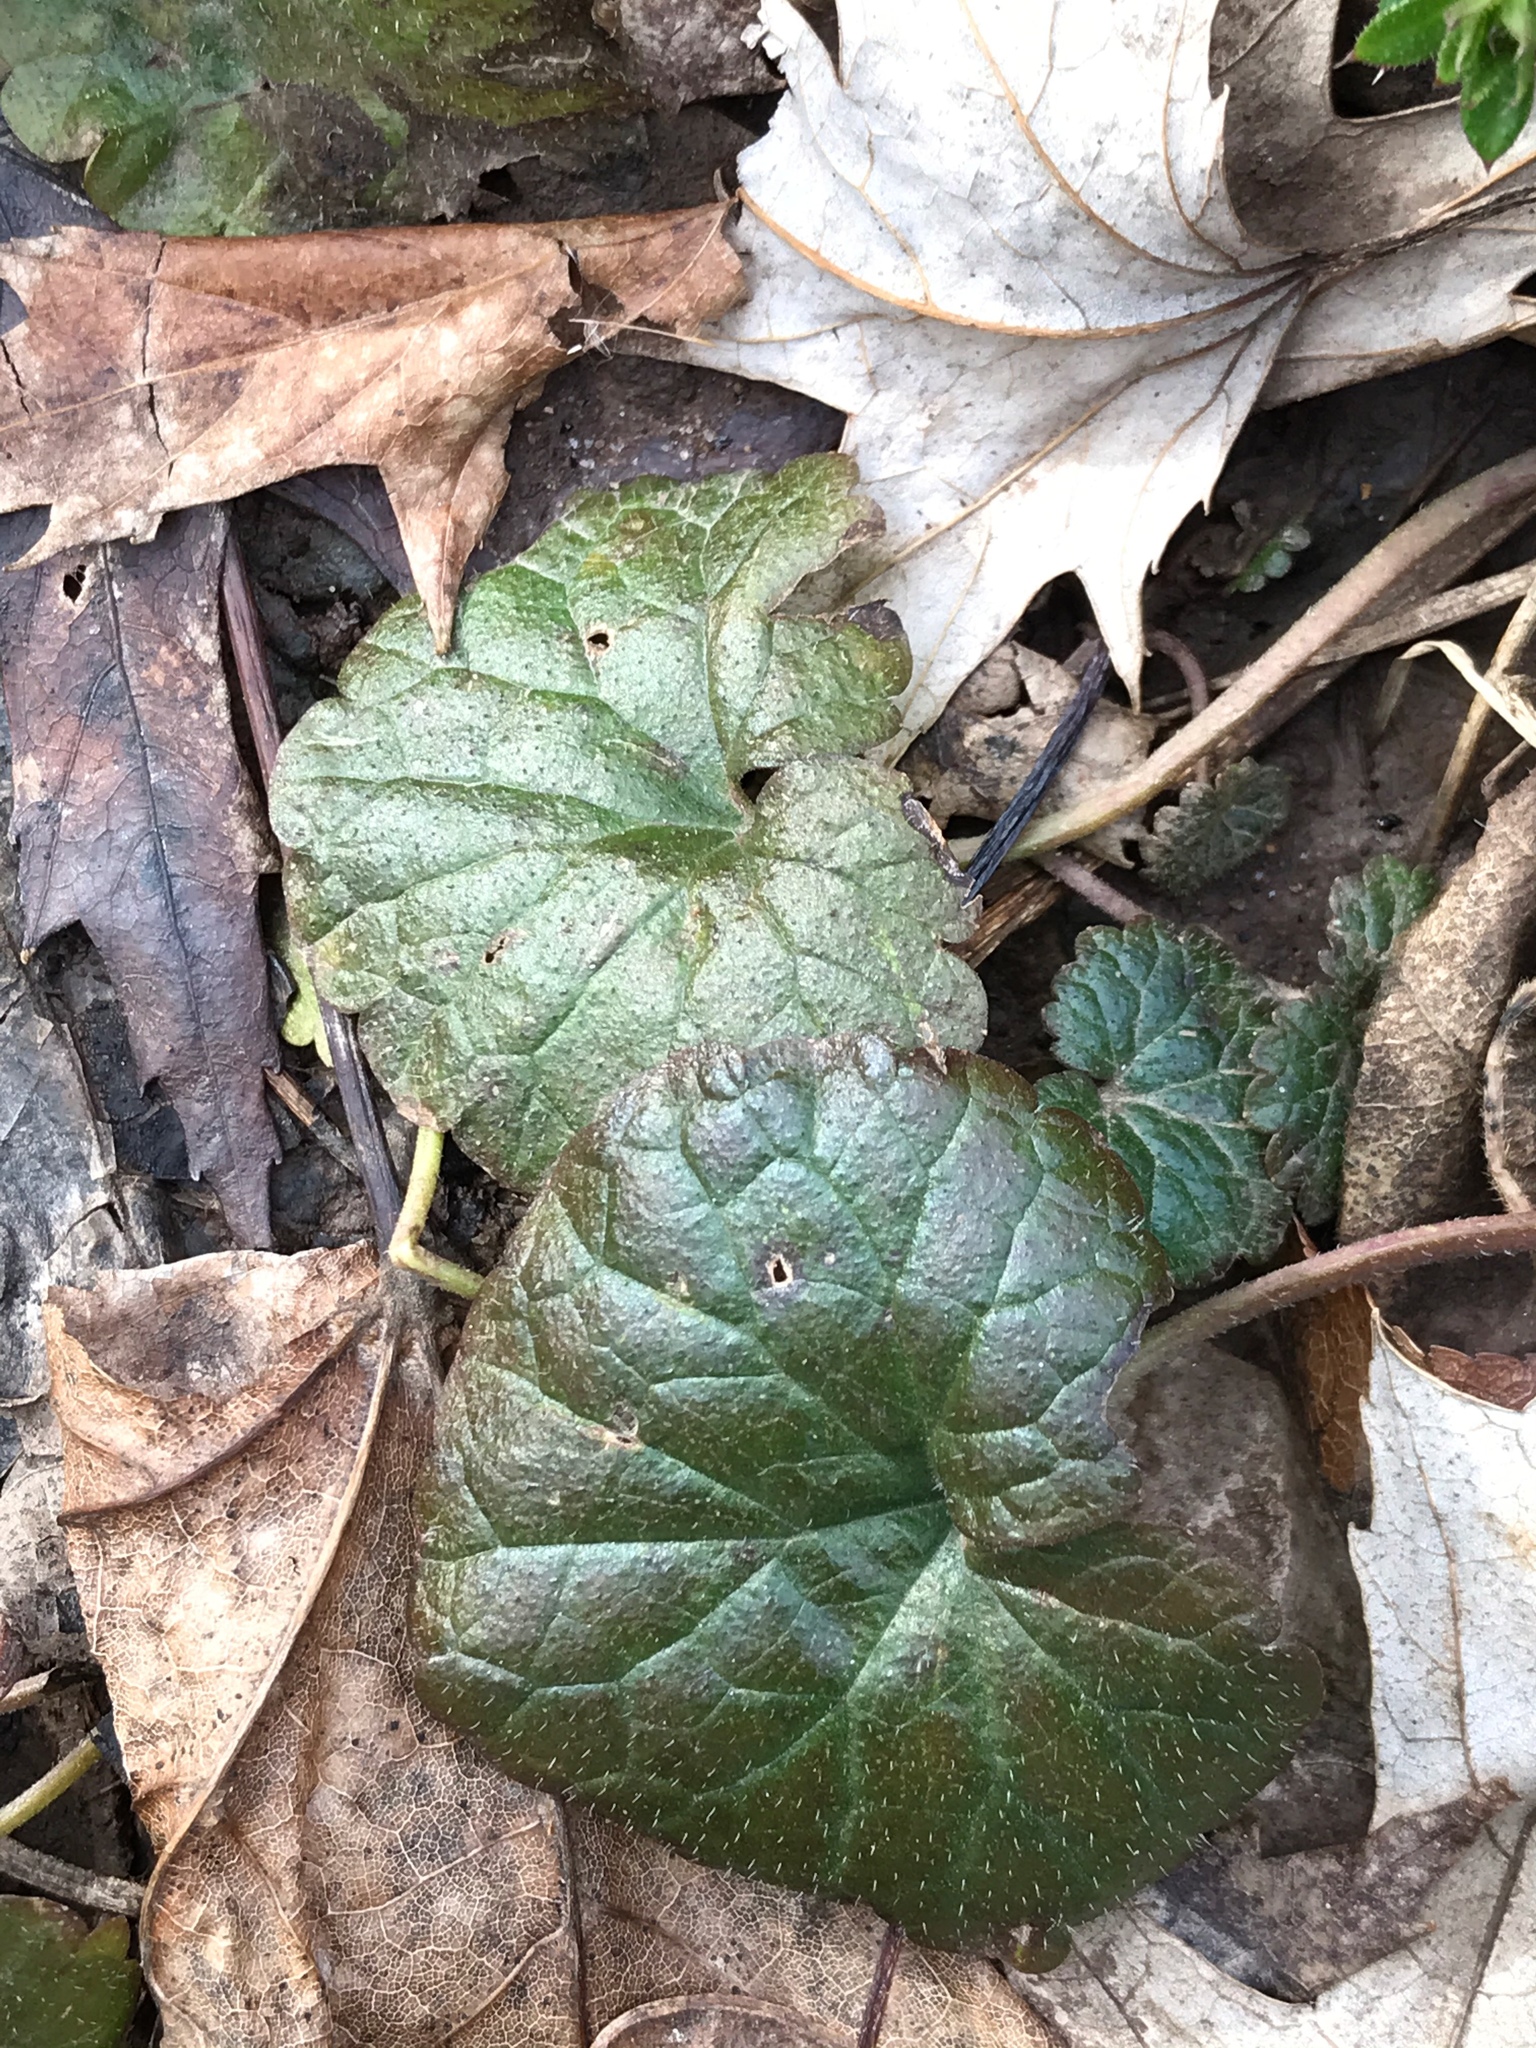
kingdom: Plantae
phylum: Tracheophyta
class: Magnoliopsida
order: Lamiales
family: Lamiaceae
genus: Glechoma
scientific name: Glechoma hederacea
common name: Ground ivy
